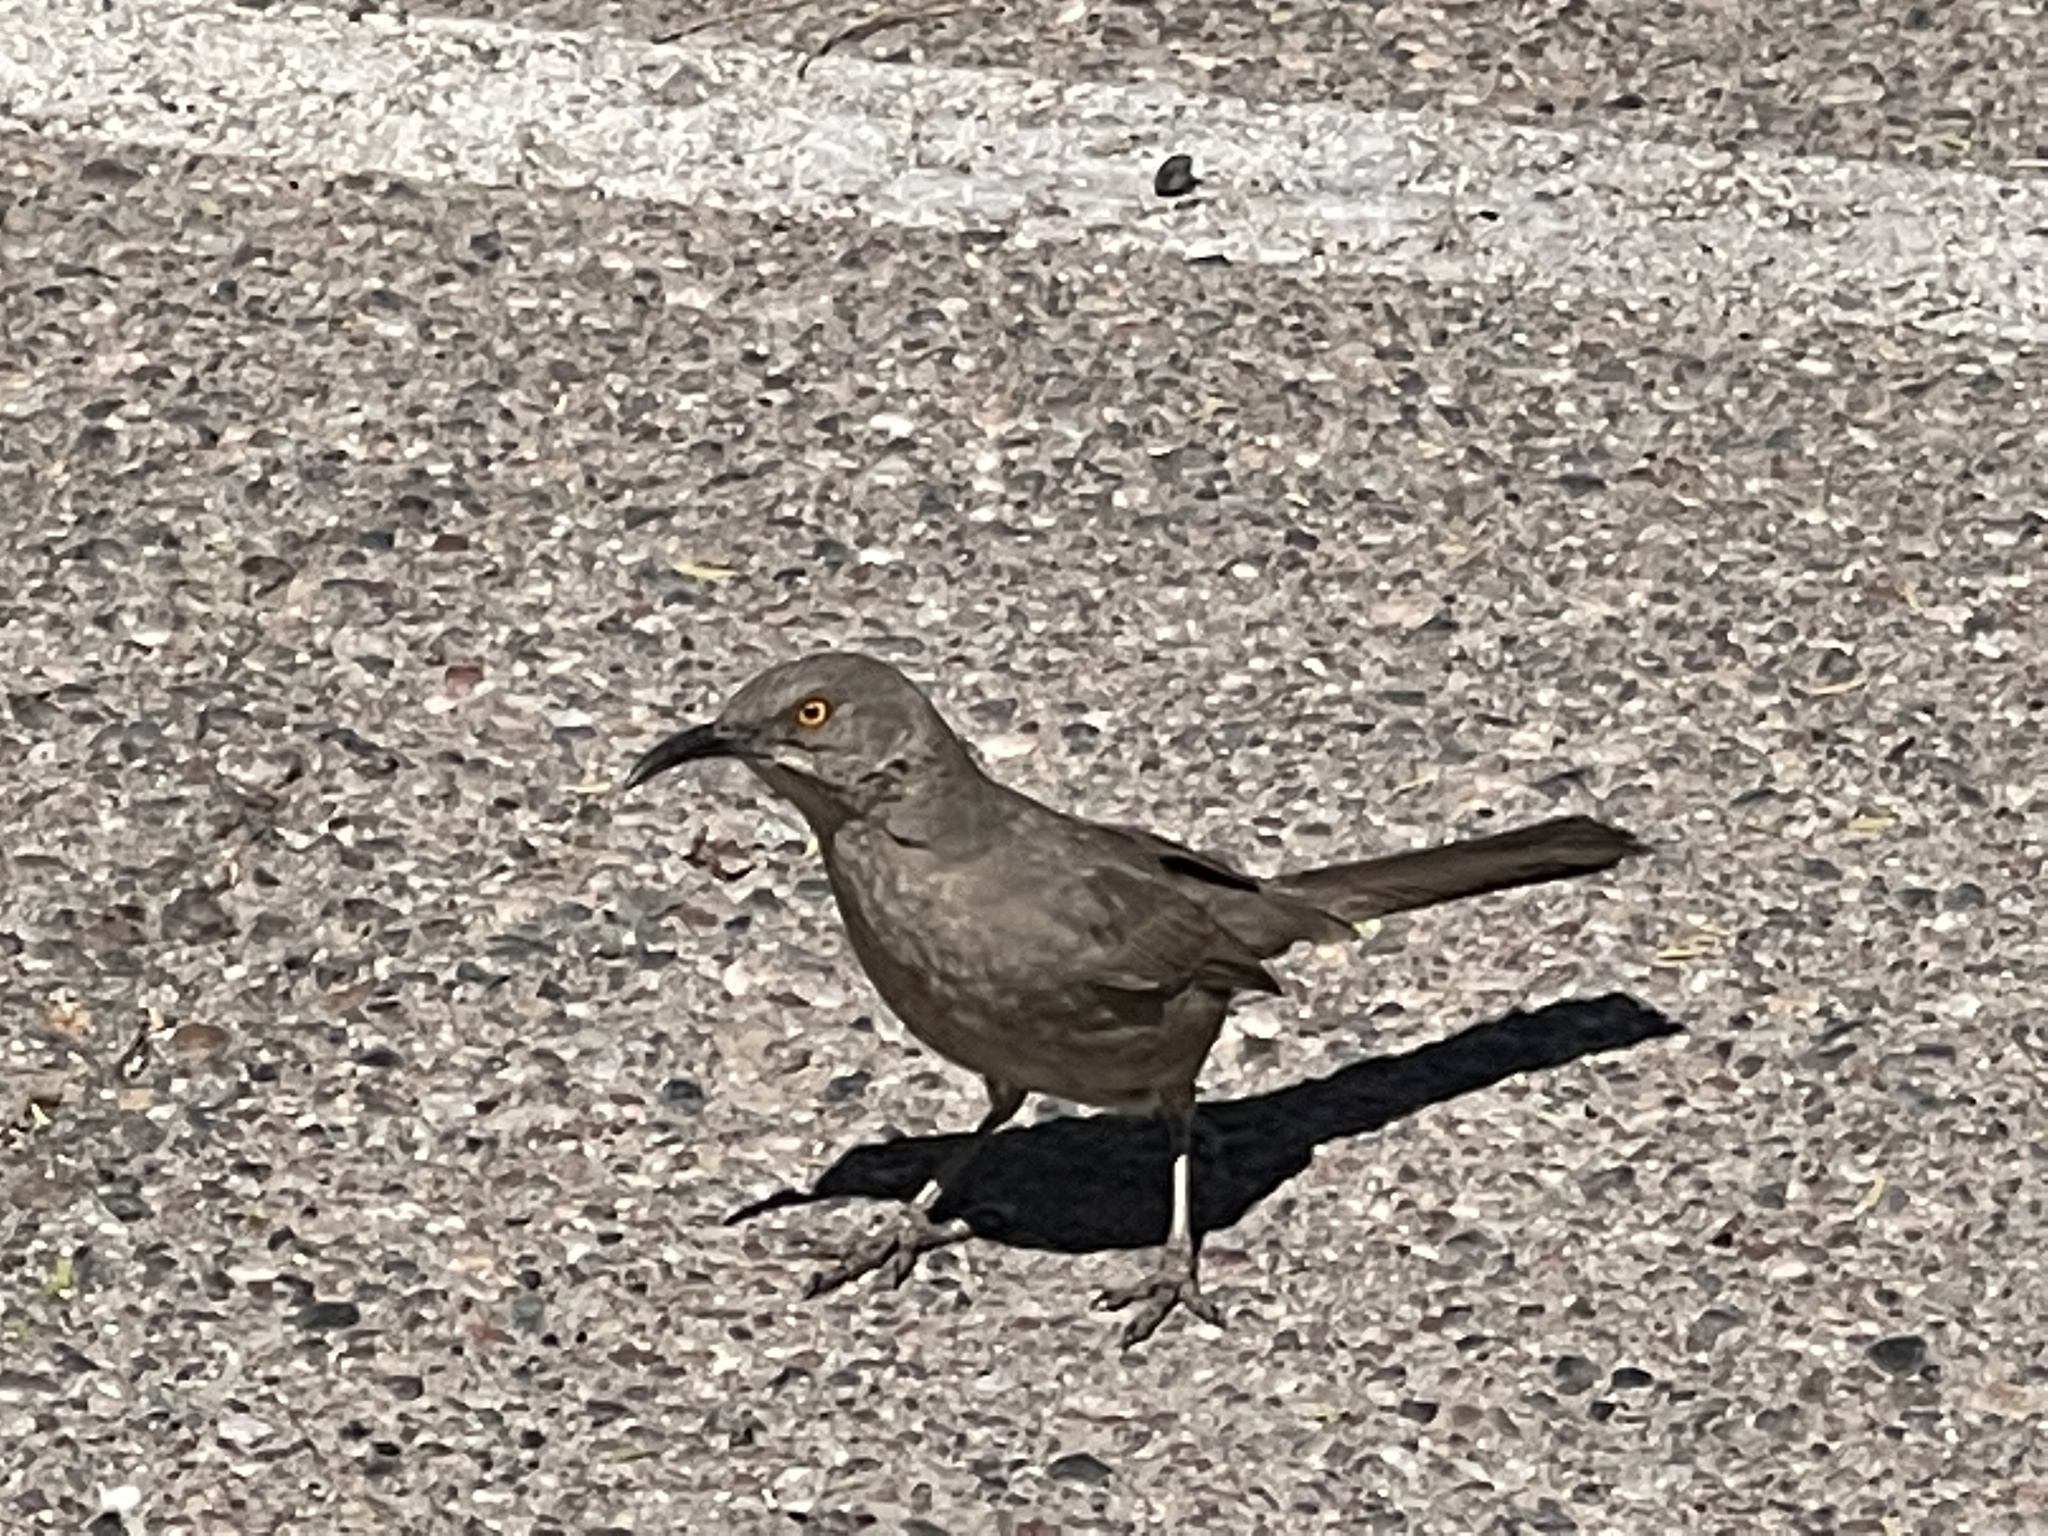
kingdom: Animalia
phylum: Chordata
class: Aves
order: Passeriformes
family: Mimidae
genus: Toxostoma
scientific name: Toxostoma curvirostre
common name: Curve-billed thrasher
